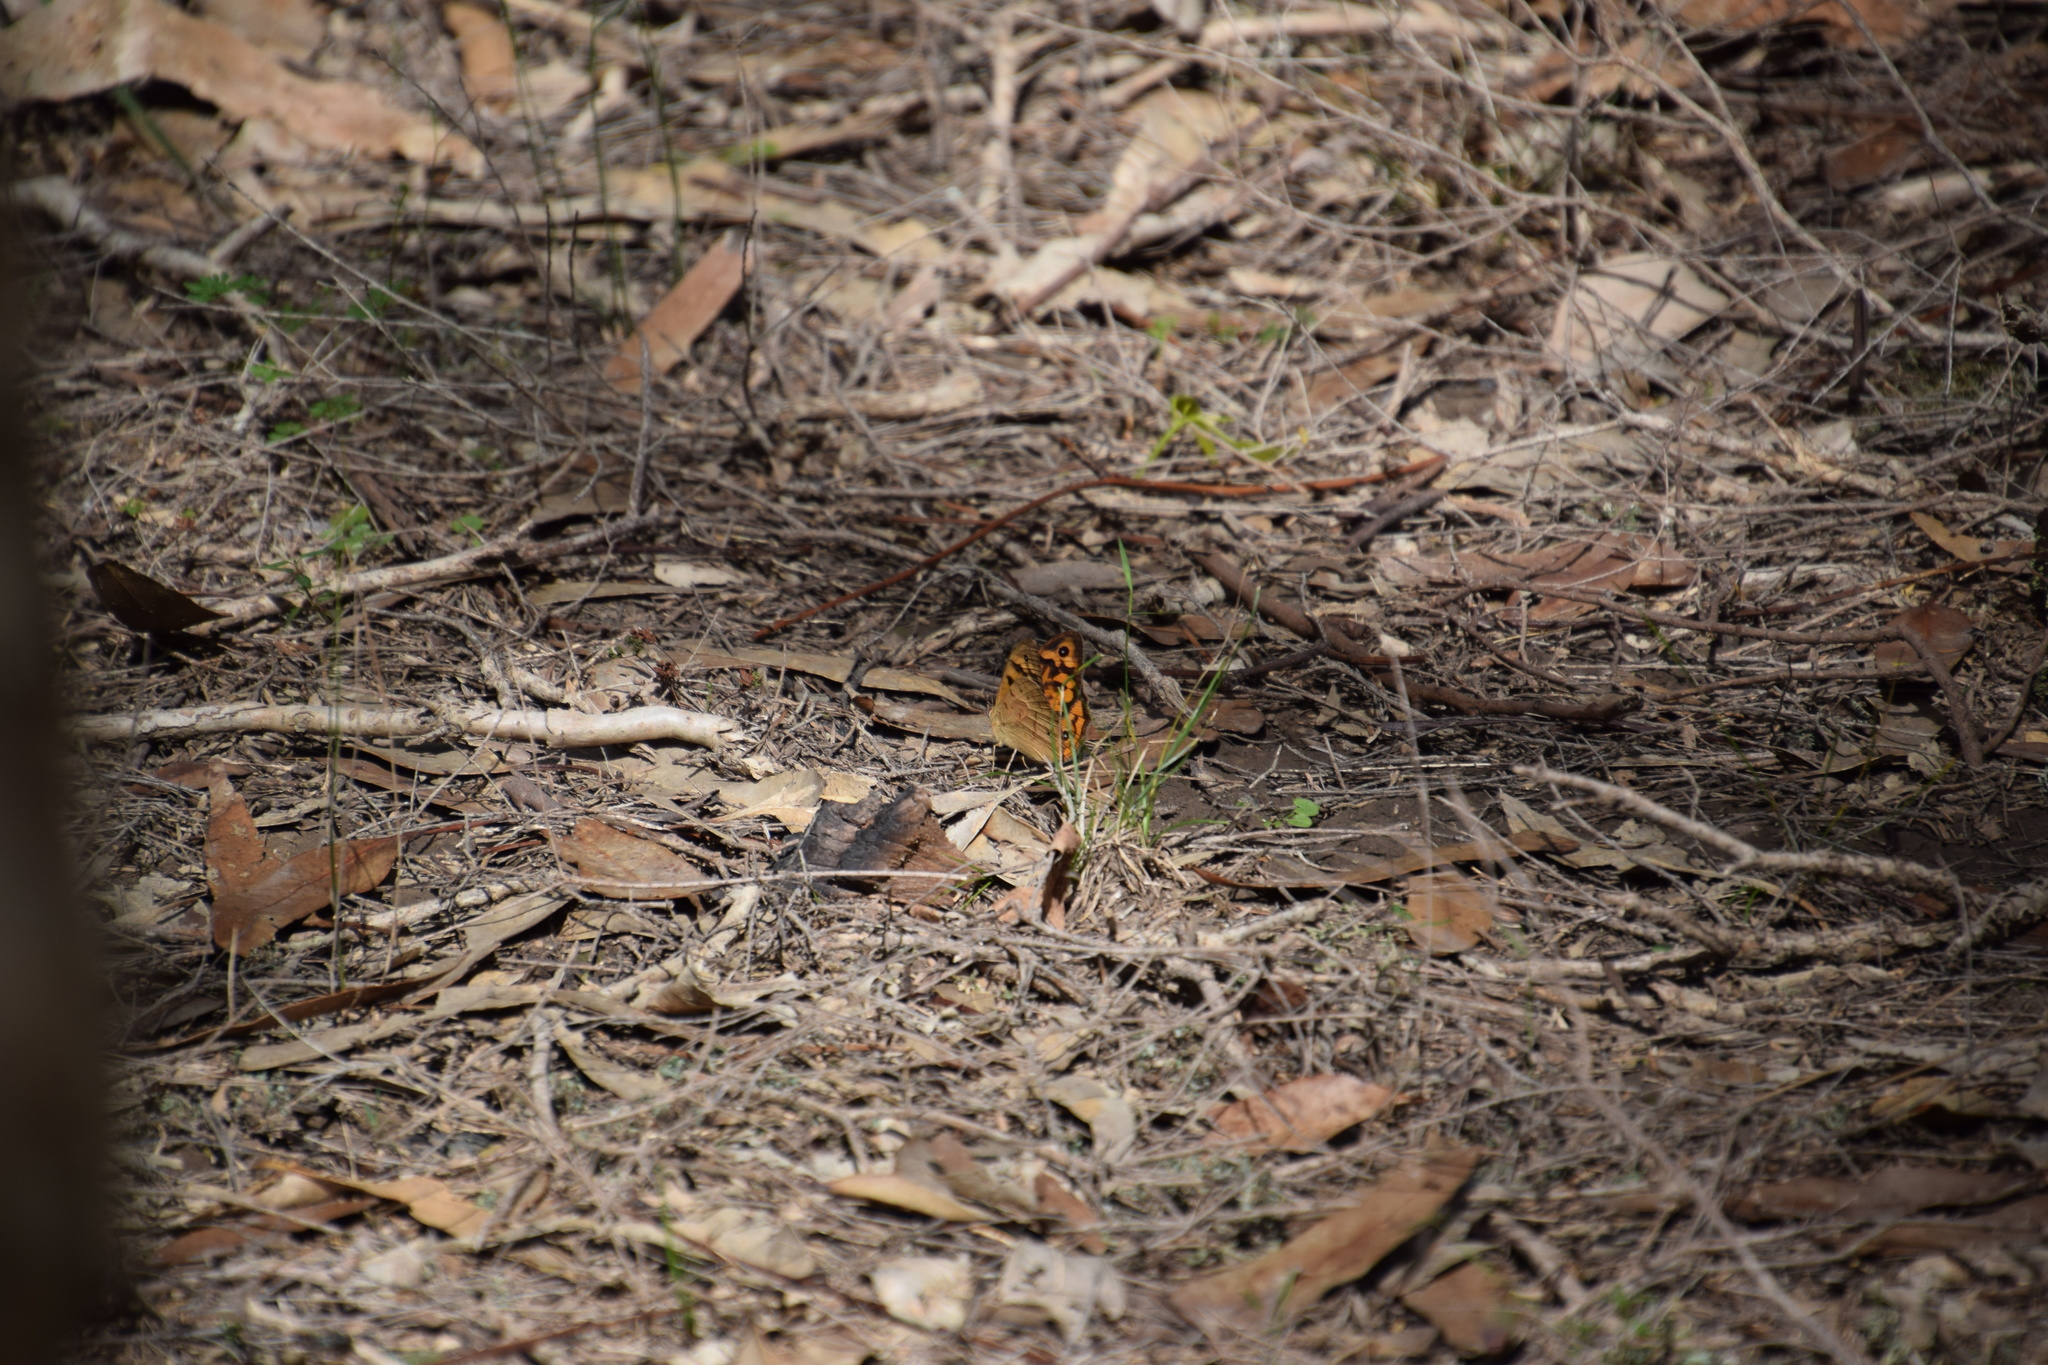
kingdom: Animalia
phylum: Arthropoda
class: Insecta
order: Lepidoptera
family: Nymphalidae
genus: Heteronympha
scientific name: Heteronympha merope
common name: Common brown
